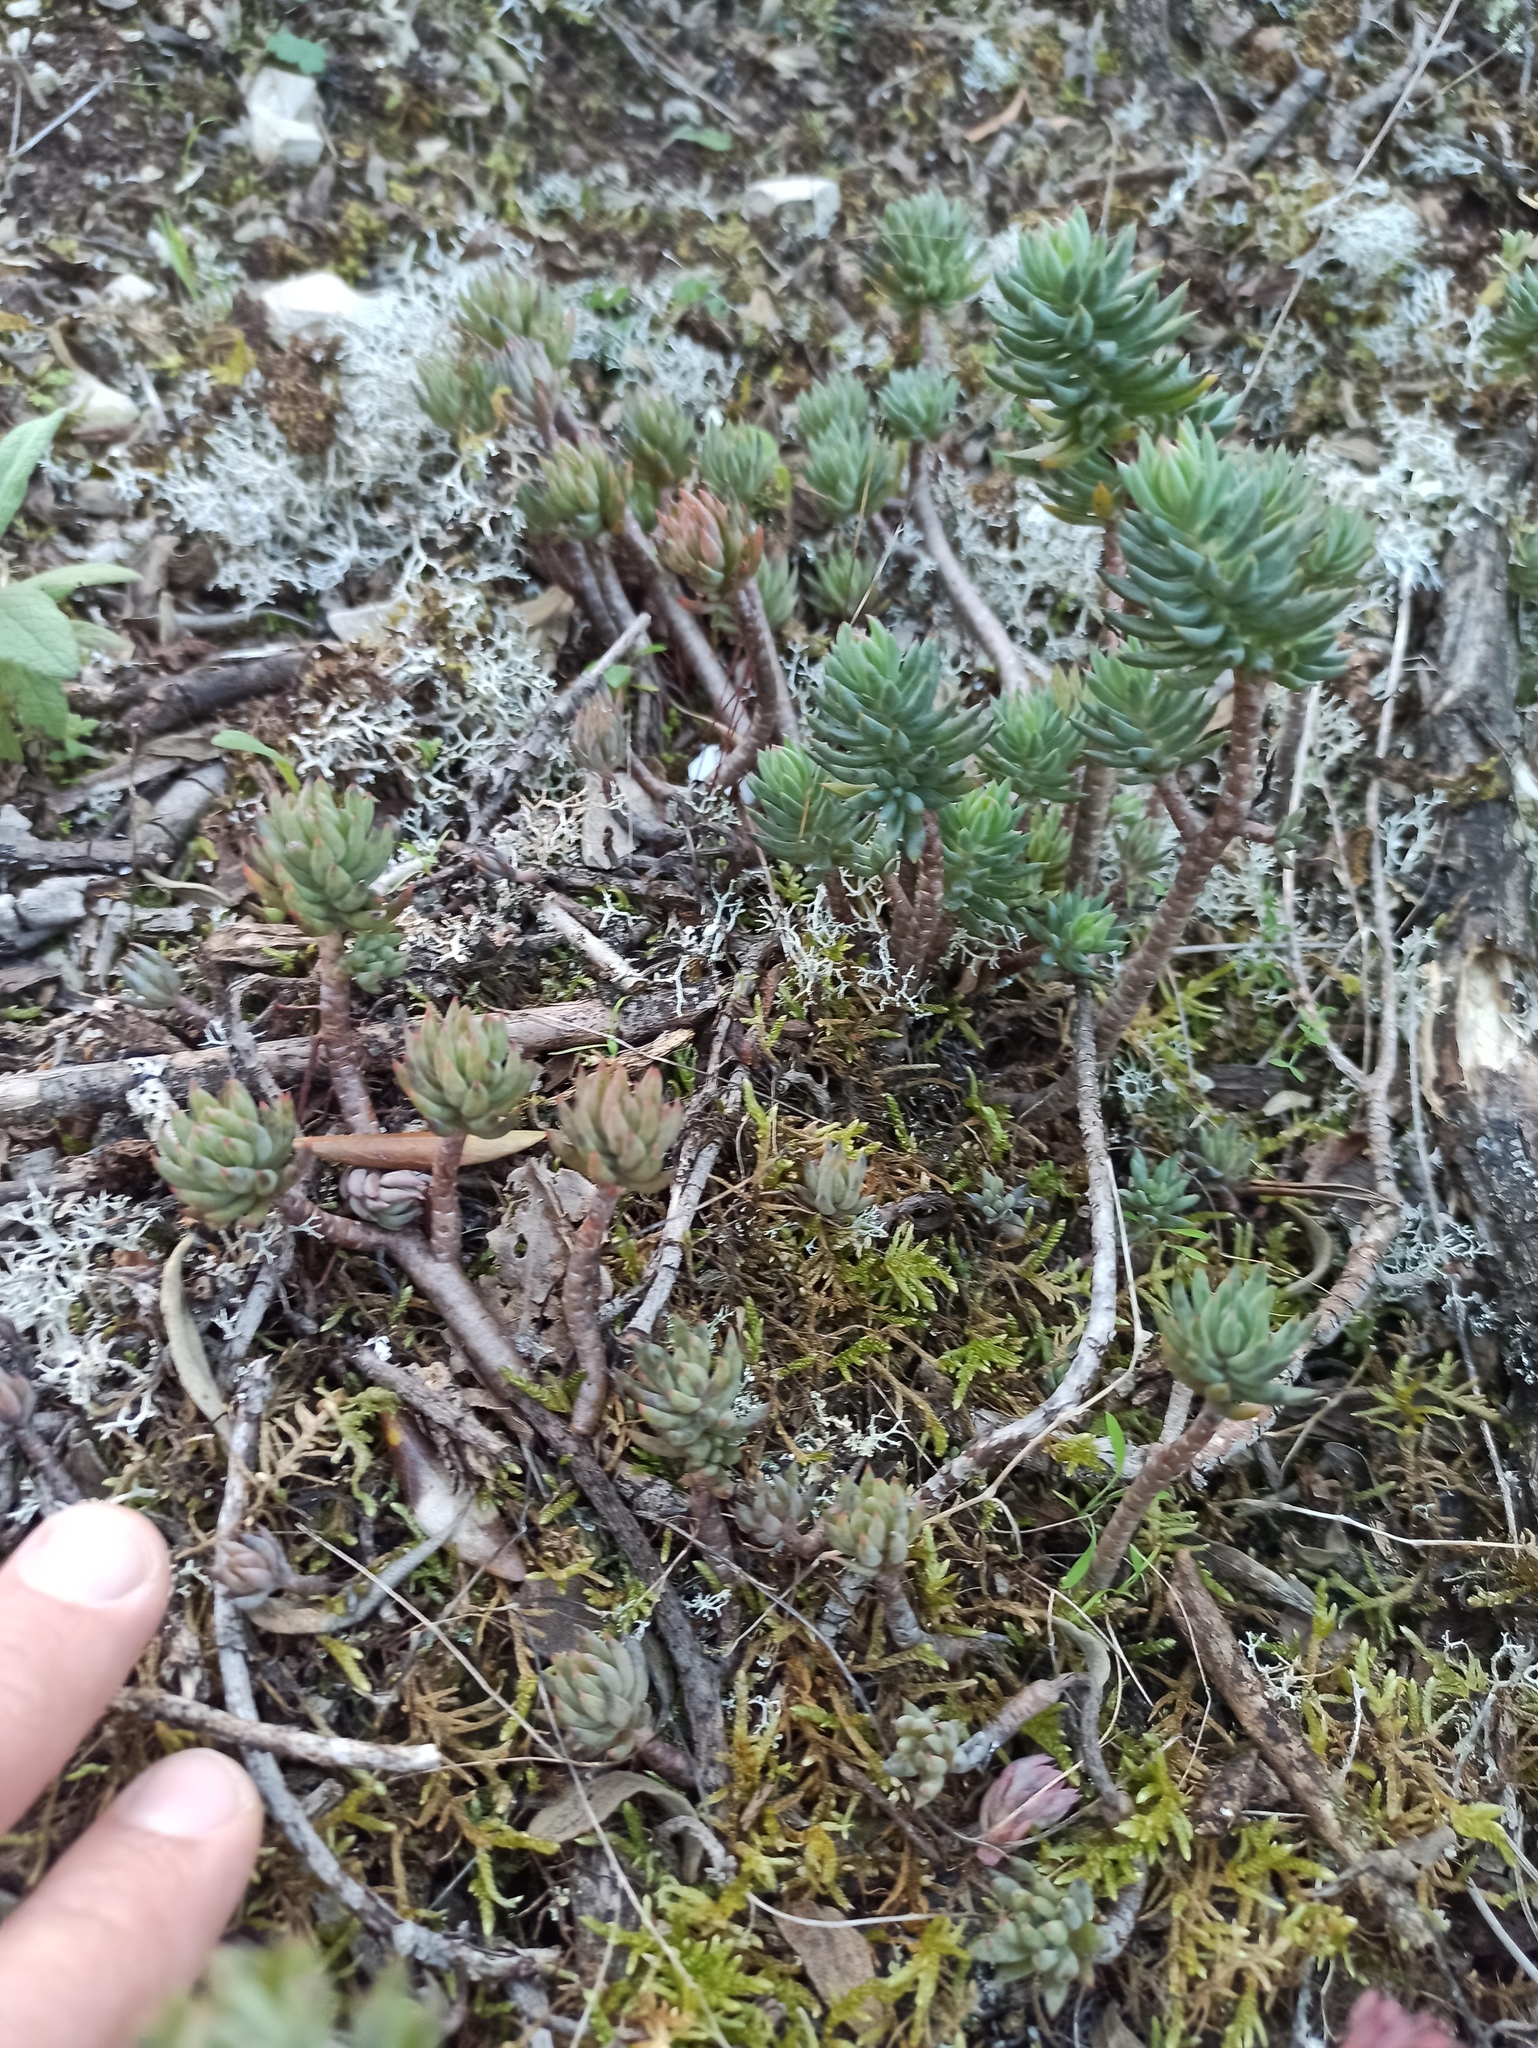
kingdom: Plantae
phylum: Tracheophyta
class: Magnoliopsida
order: Saxifragales
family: Crassulaceae
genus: Petrosedum
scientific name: Petrosedum sediforme
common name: Pale stonecrop
